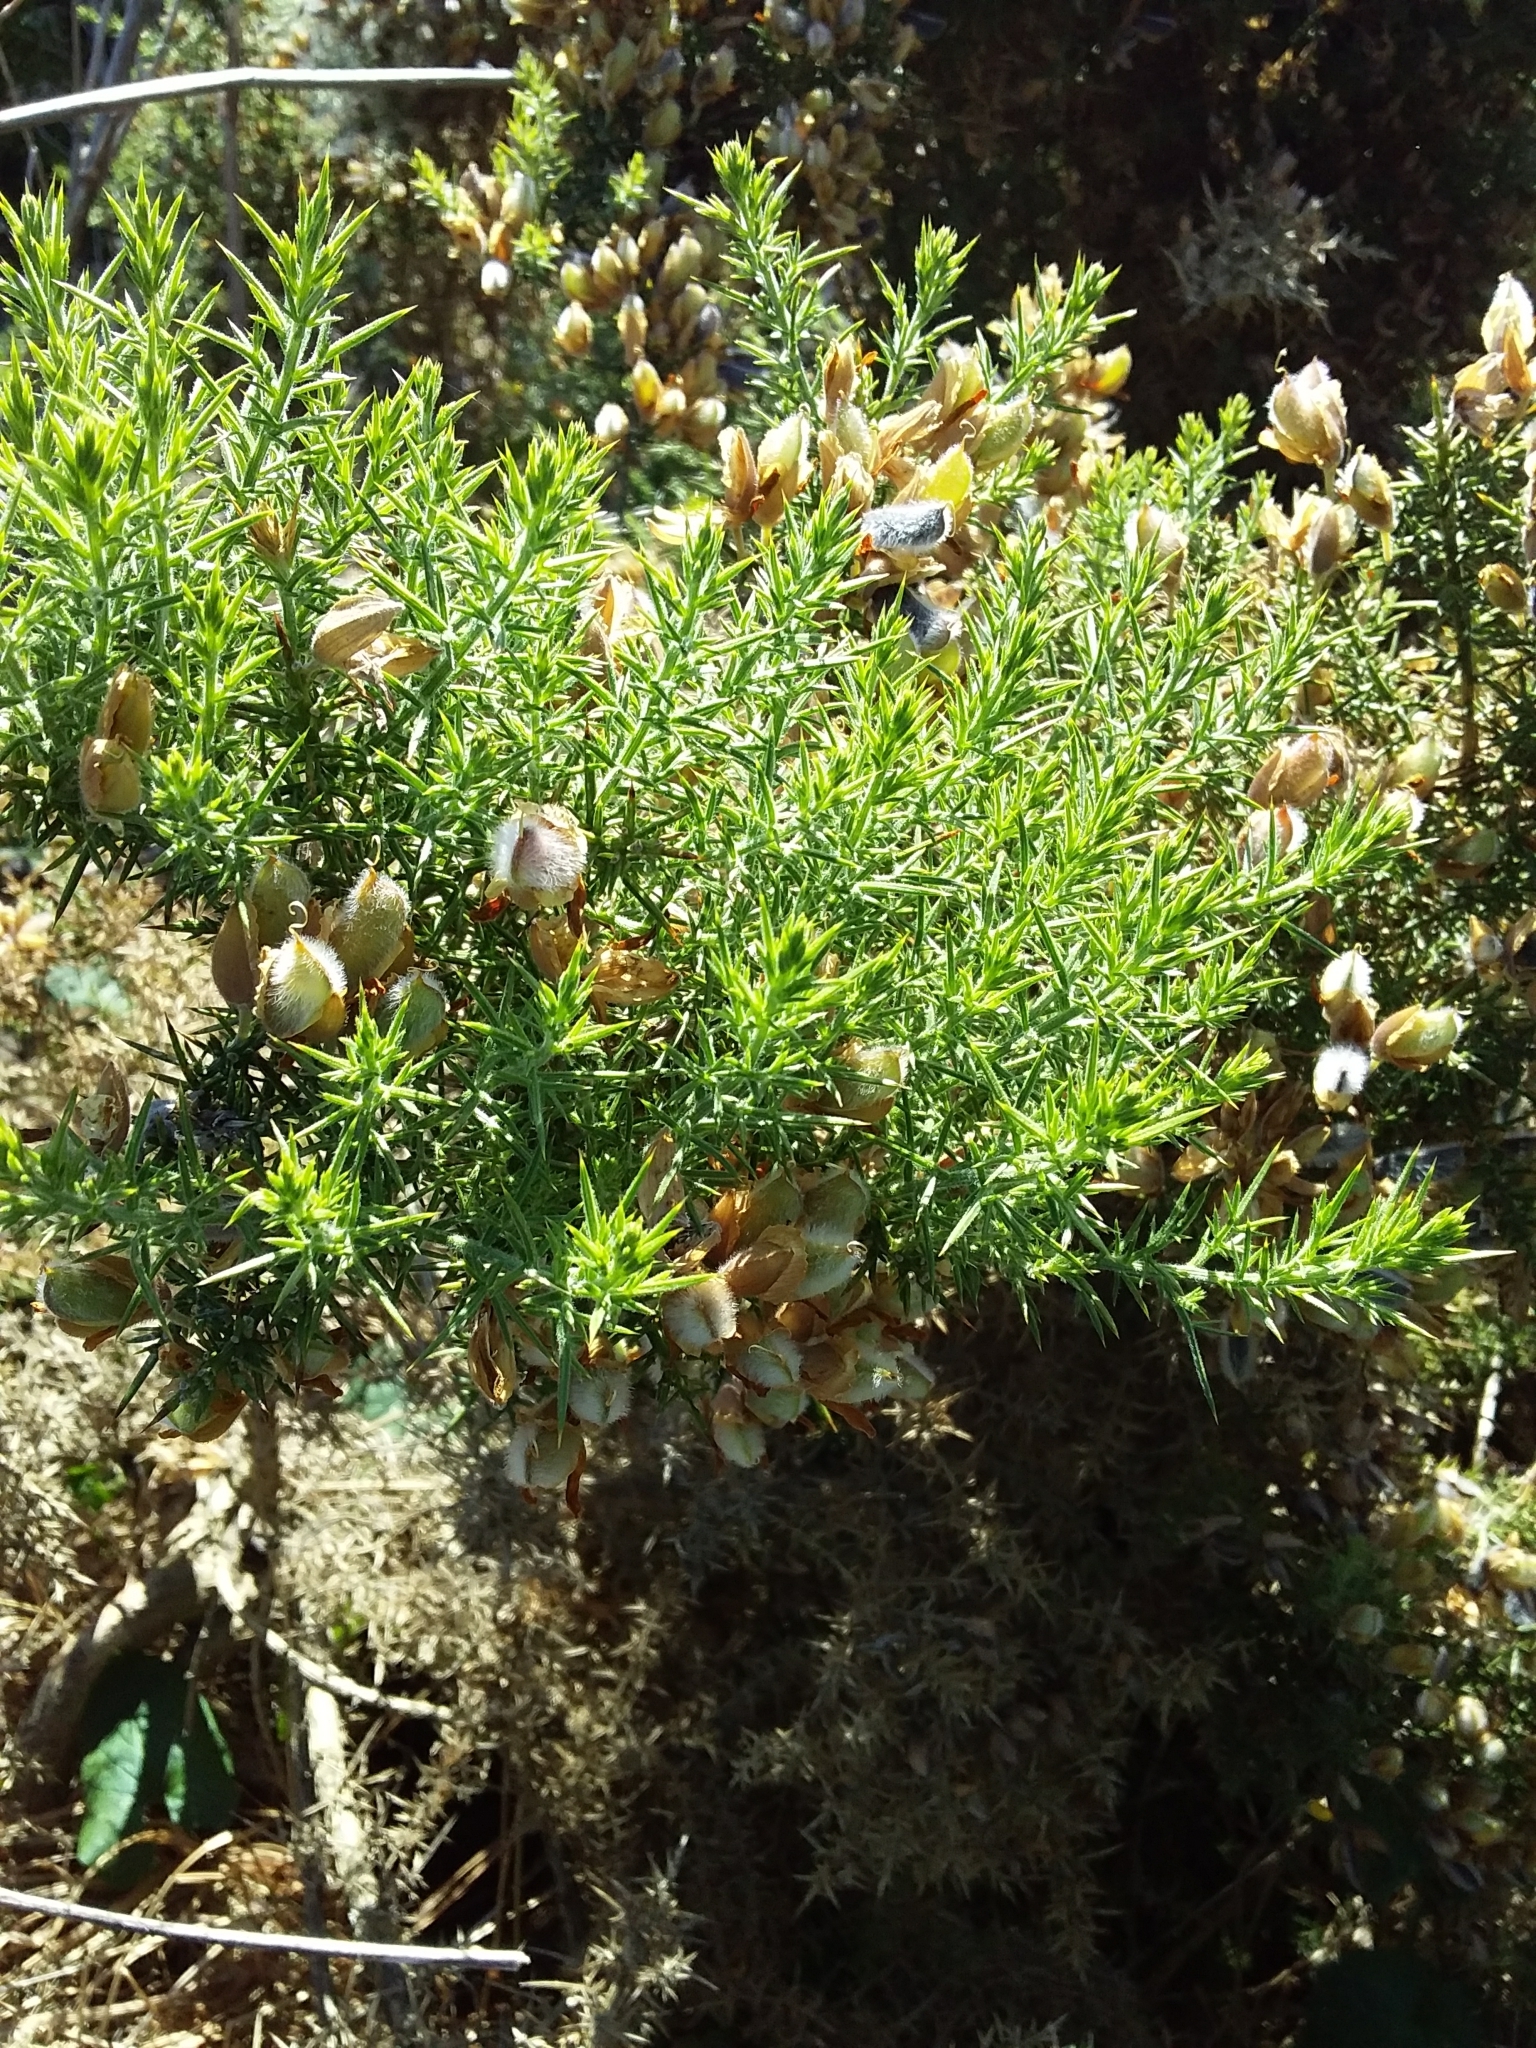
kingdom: Plantae
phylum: Tracheophyta
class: Magnoliopsida
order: Fabales
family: Fabaceae
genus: Ulex
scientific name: Ulex europaeus
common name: Common gorse
